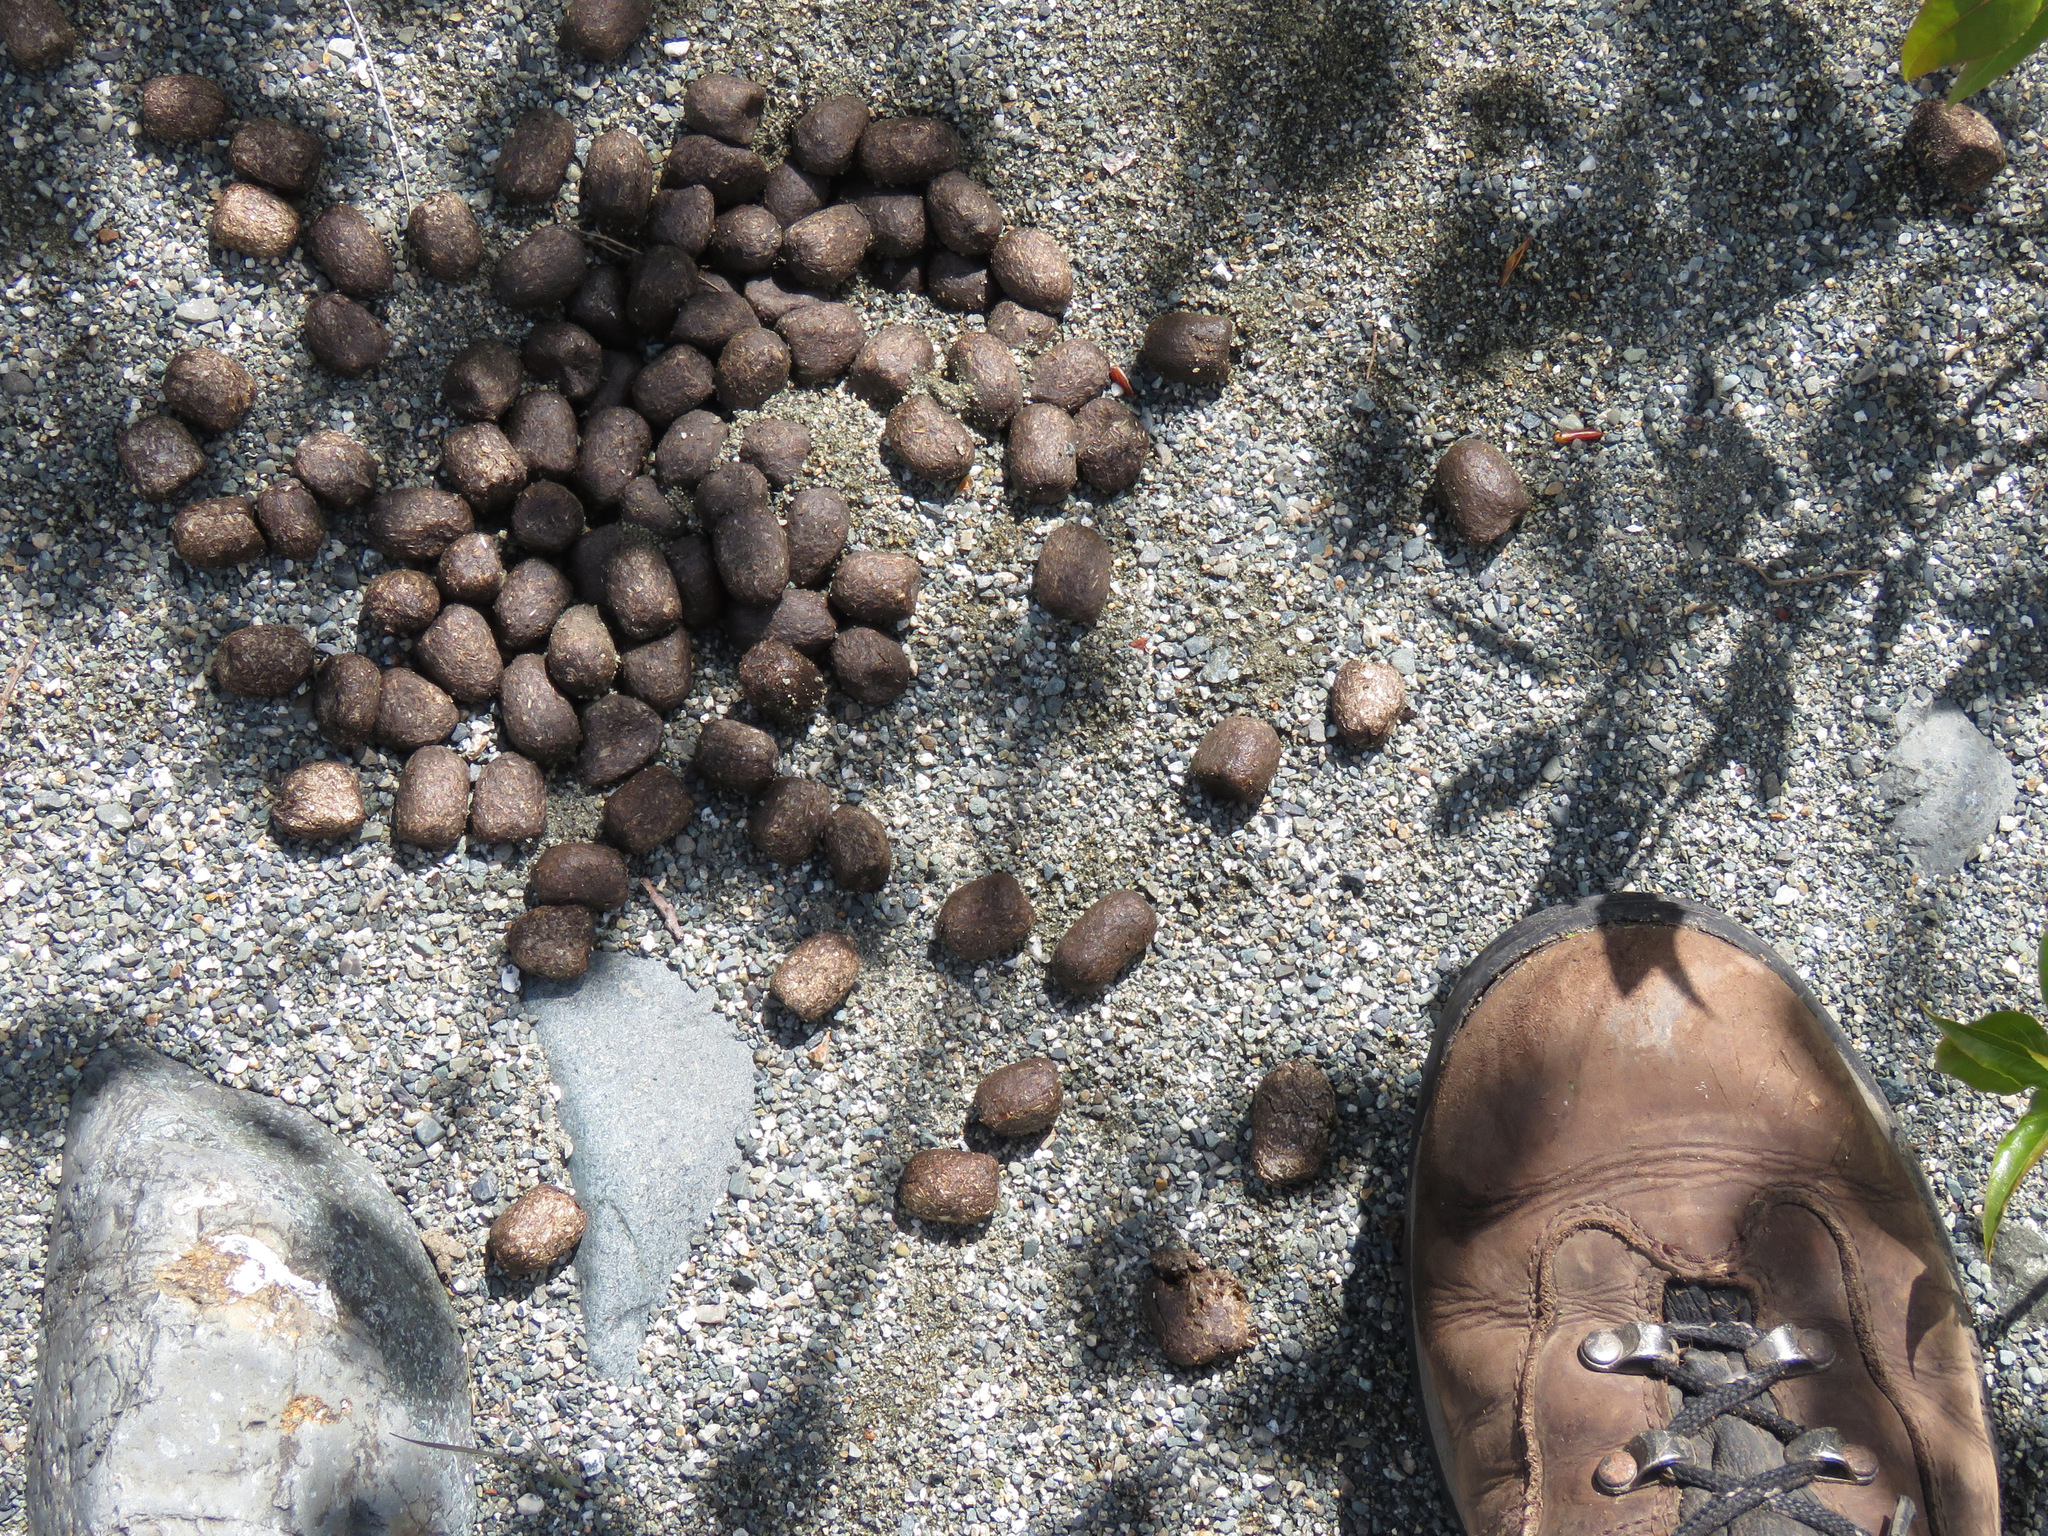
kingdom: Animalia
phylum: Chordata
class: Mammalia
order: Artiodactyla
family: Cervidae
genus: Cervus
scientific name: Cervus elaphus
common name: Red deer
